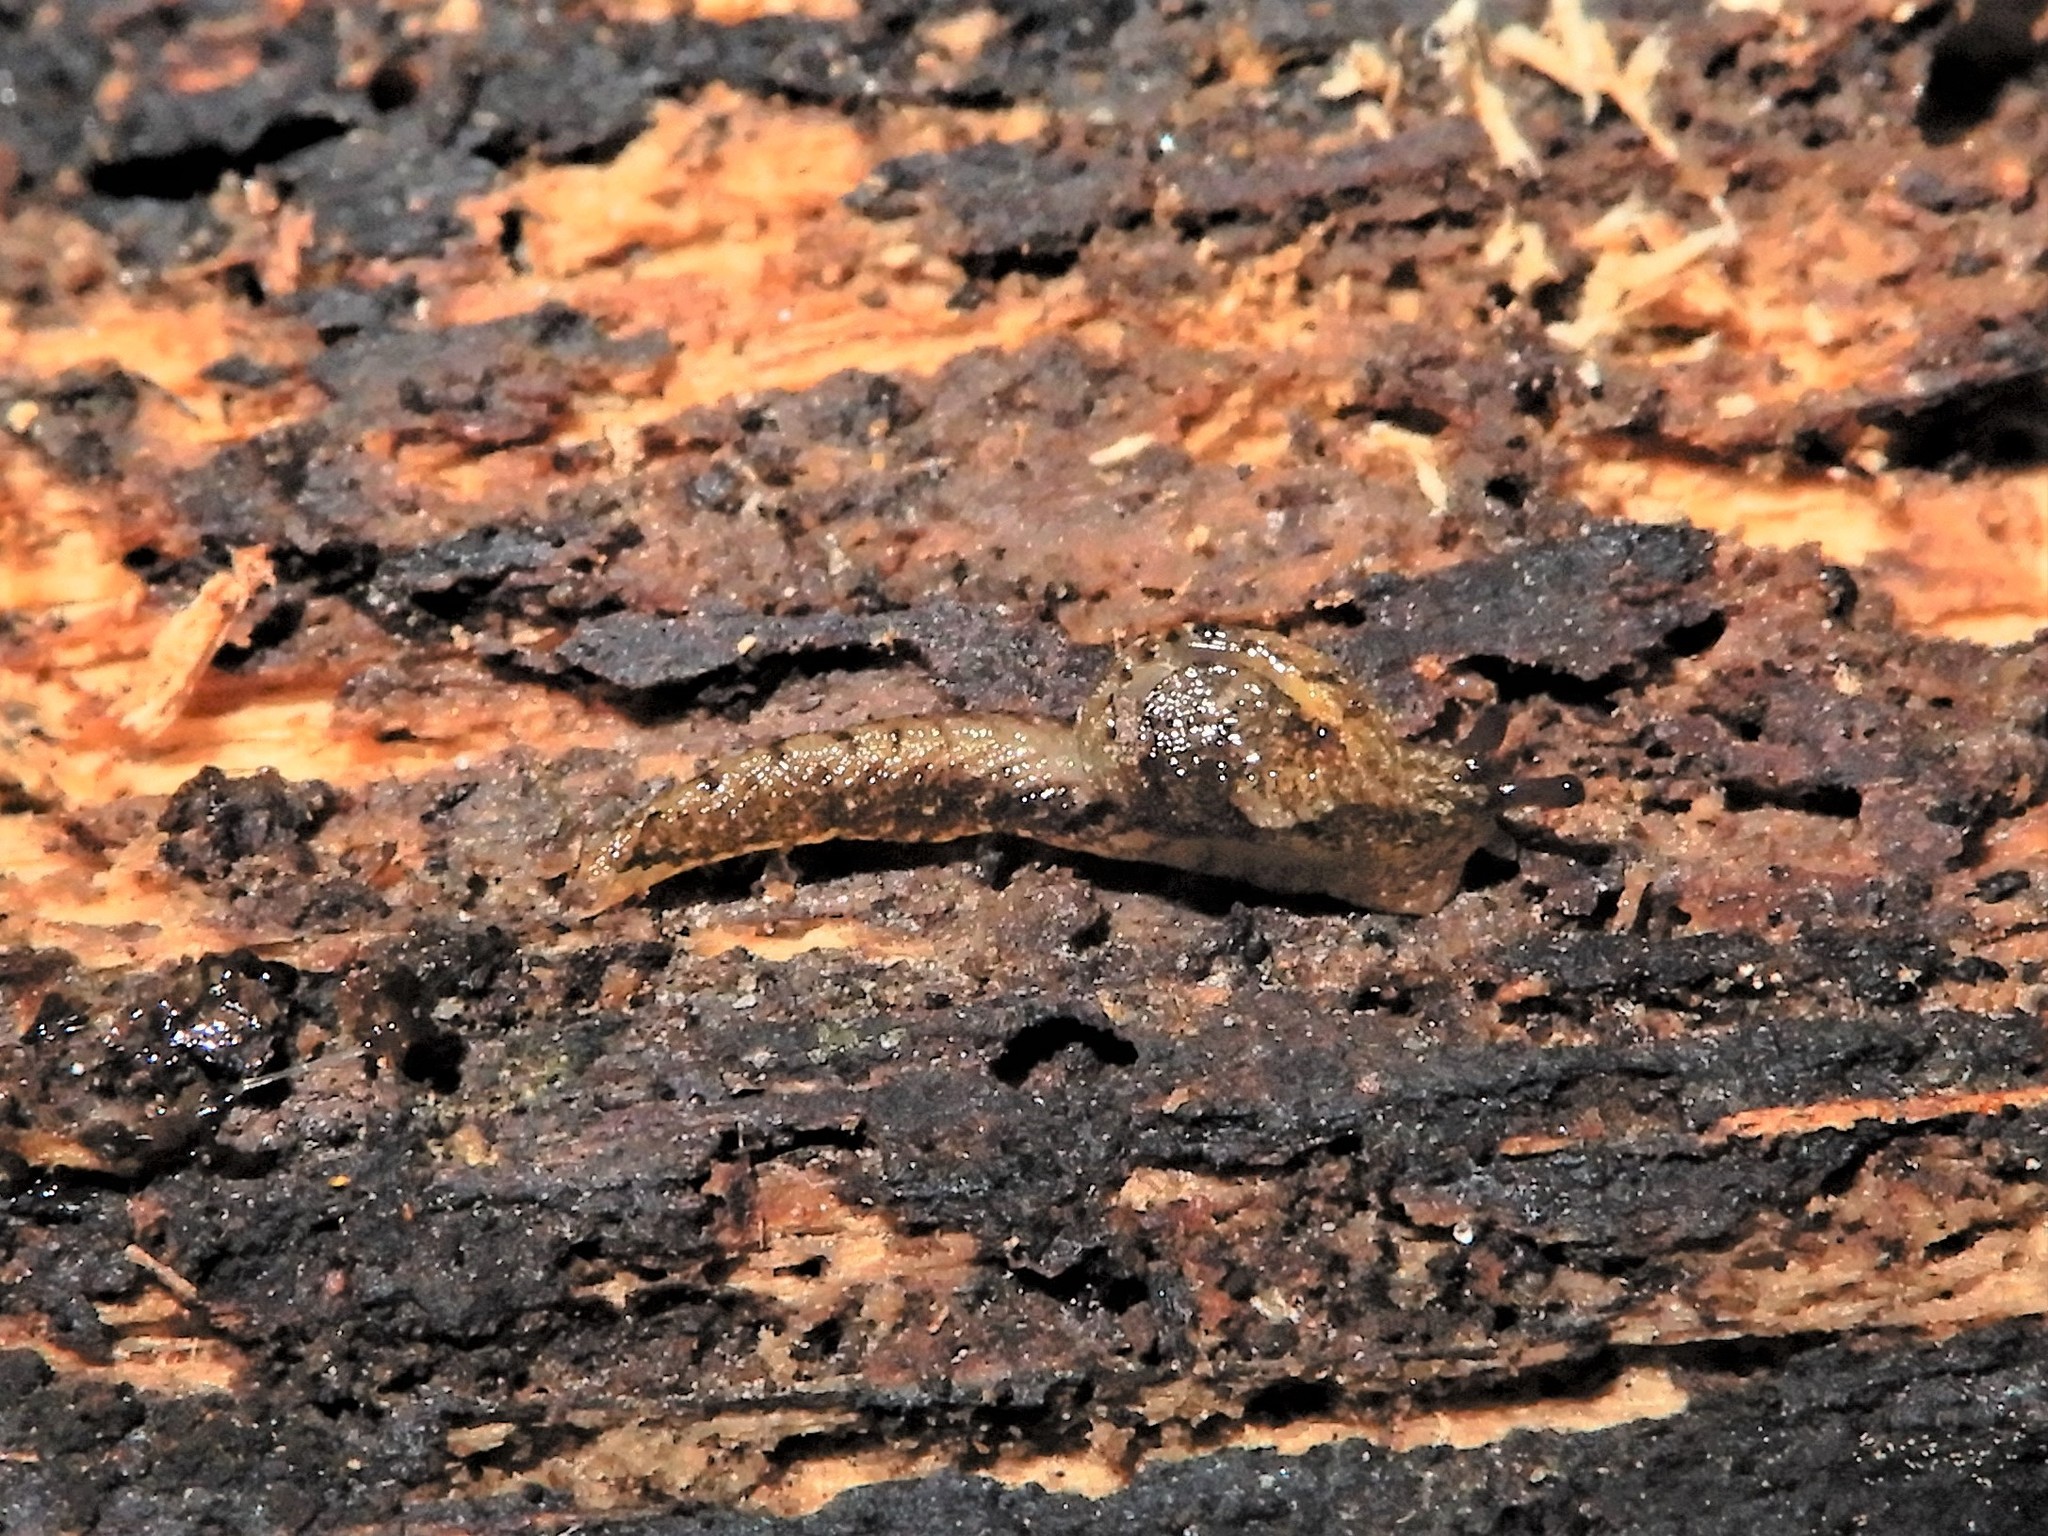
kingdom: Animalia
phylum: Mollusca
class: Gastropoda
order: Stylommatophora
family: Charopidae
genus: Otoconcha
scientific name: Otoconcha dimidiata
